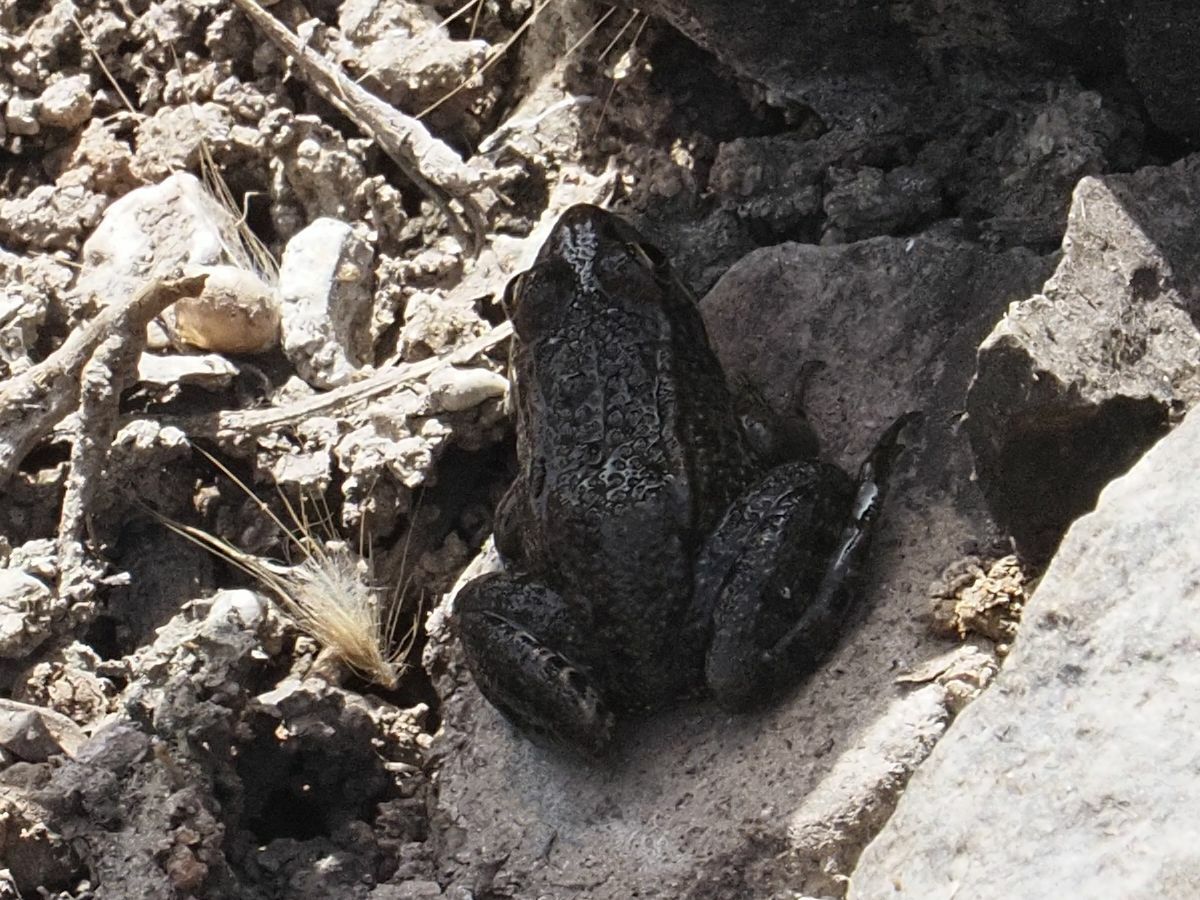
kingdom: Animalia
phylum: Chordata
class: Amphibia
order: Anura
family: Ranidae
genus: Pelophylax
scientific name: Pelophylax perezi
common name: Perez's frog
